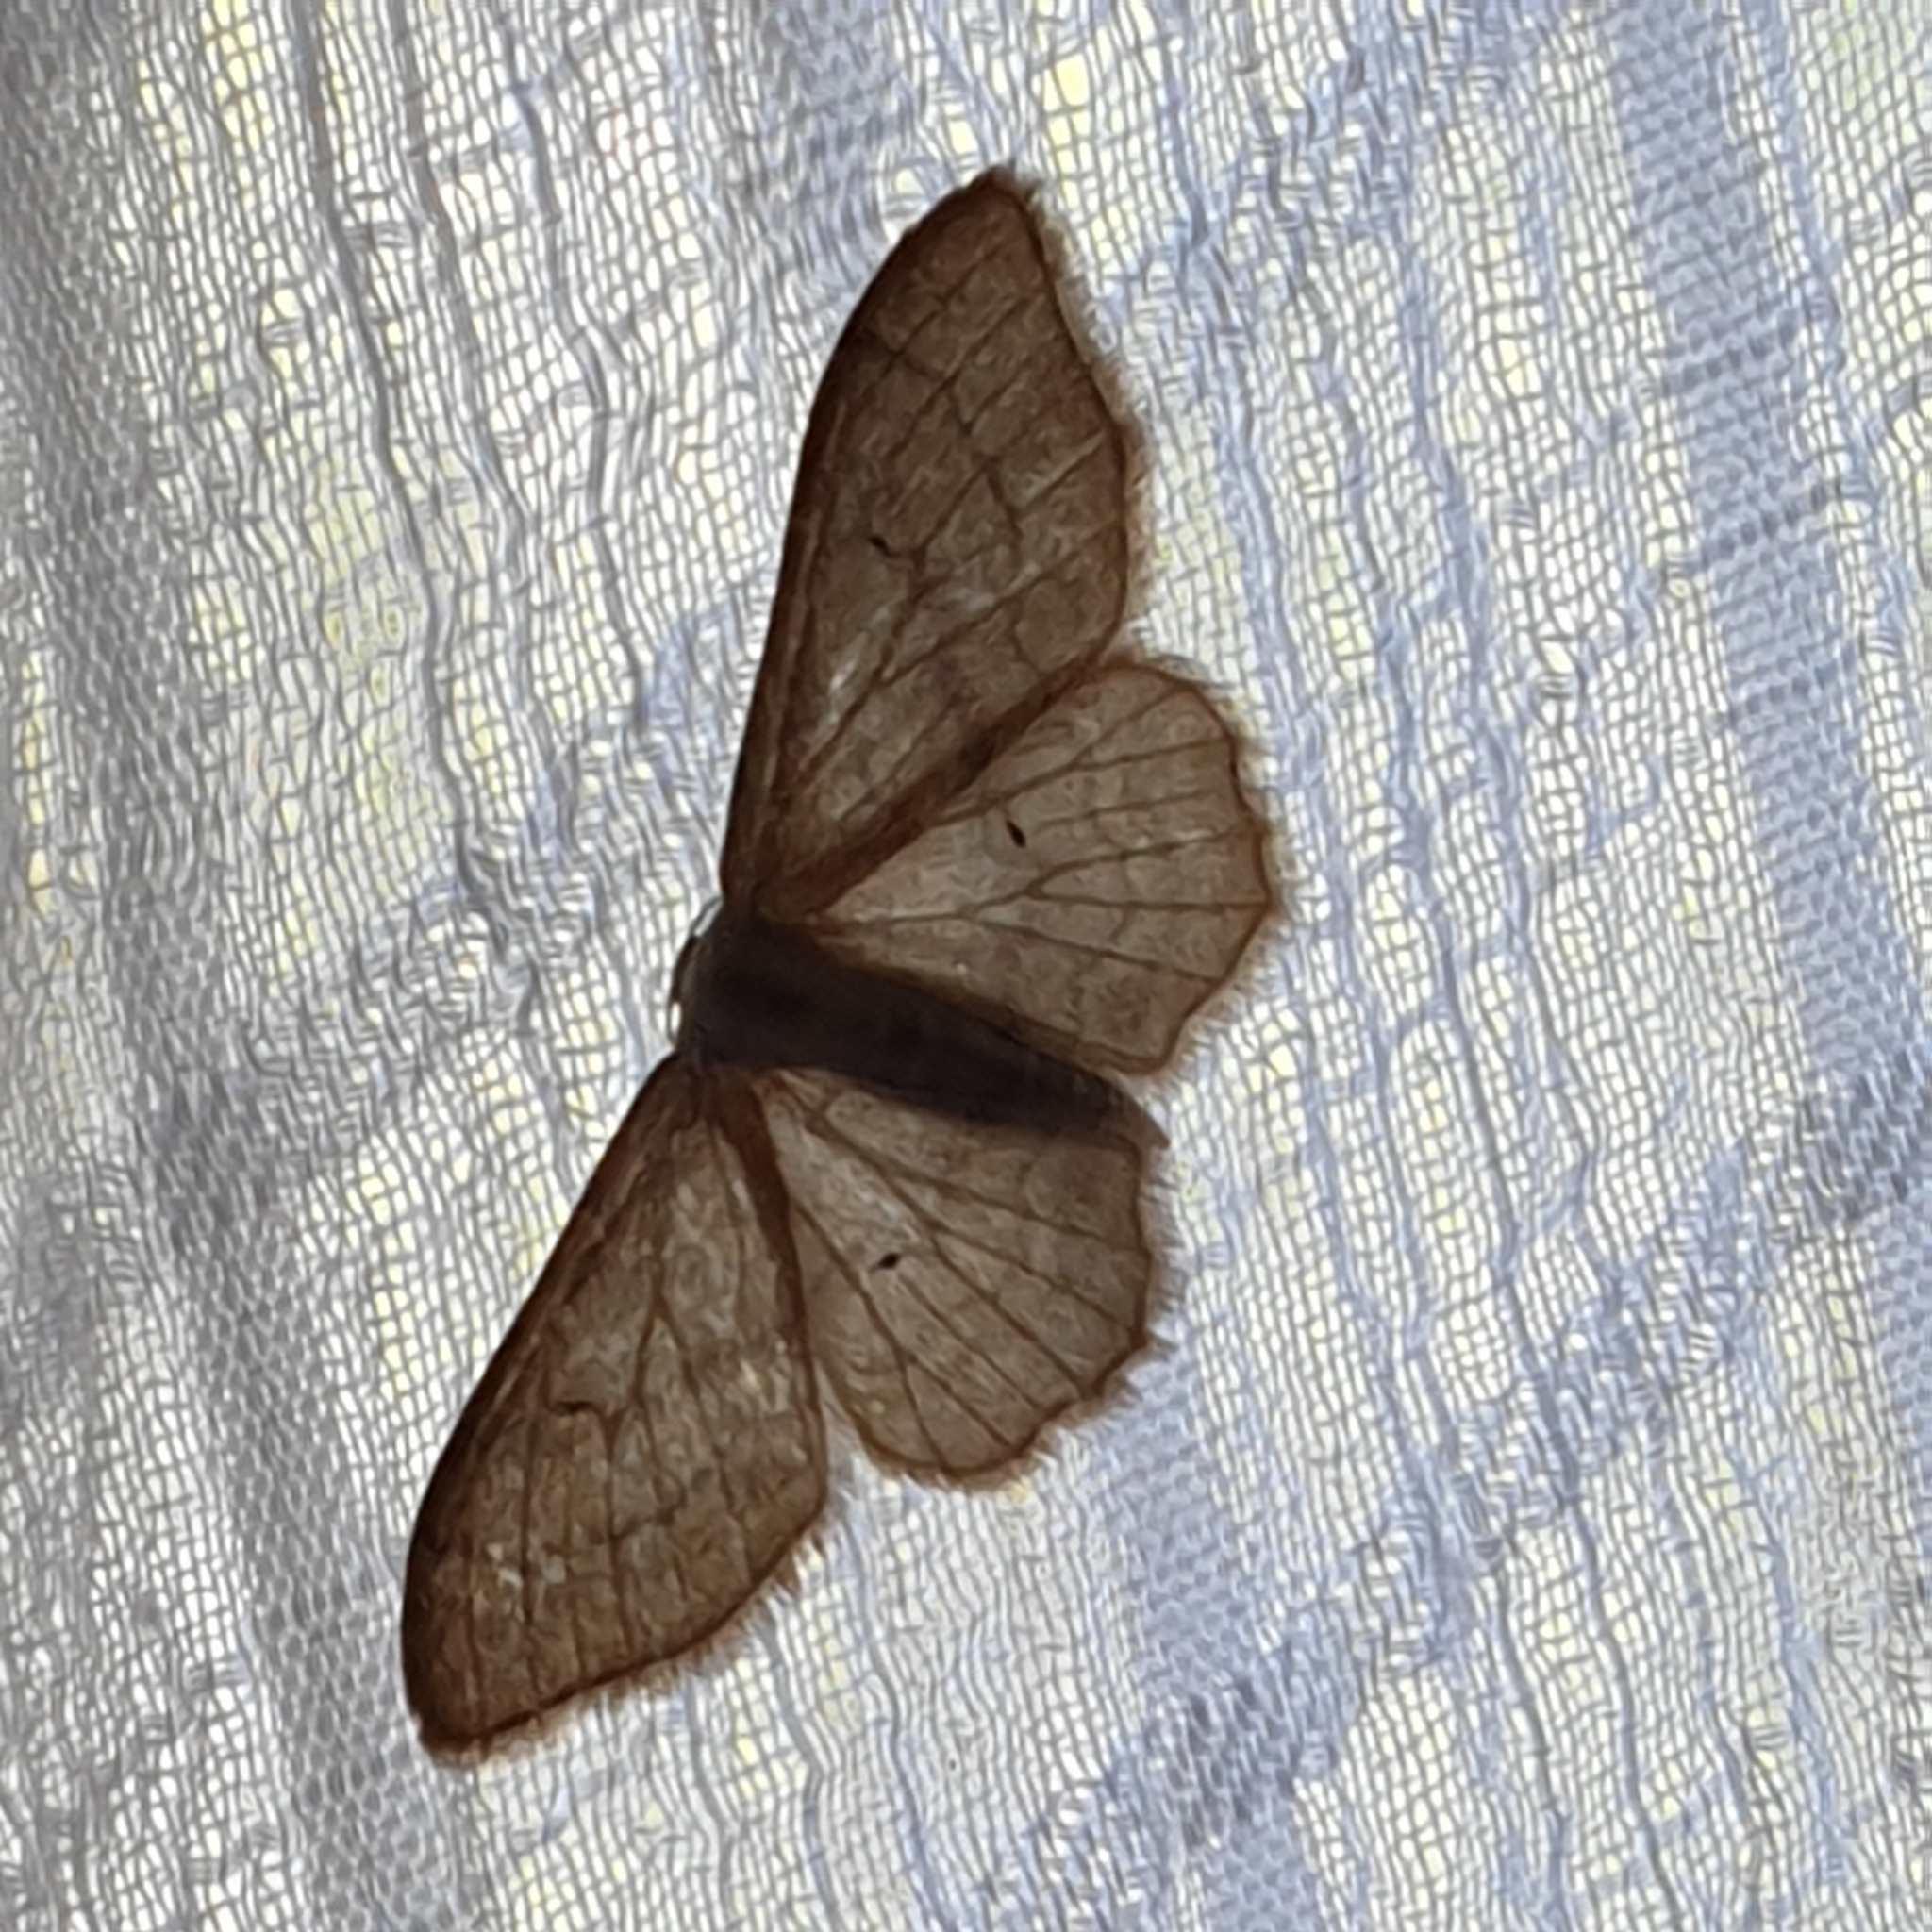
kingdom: Animalia
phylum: Arthropoda
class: Insecta
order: Lepidoptera
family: Geometridae
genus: Idaea
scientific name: Idaea aversata
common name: Riband wave
